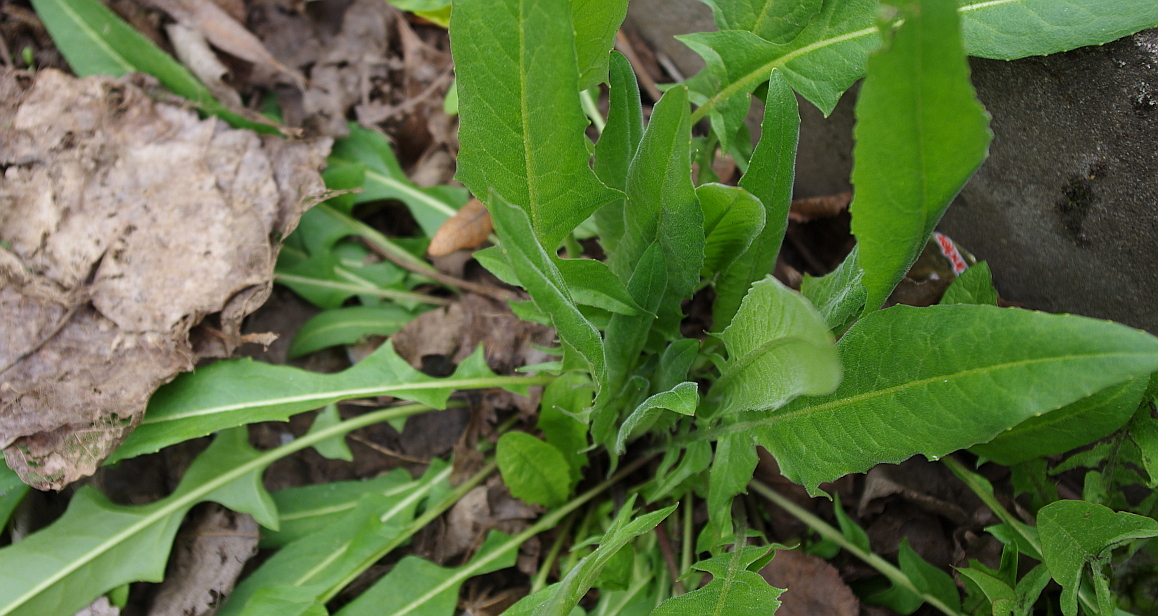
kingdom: Plantae
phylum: Tracheophyta
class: Magnoliopsida
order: Brassicales
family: Brassicaceae
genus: Bunias
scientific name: Bunias orientalis
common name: Warty-cabbage
